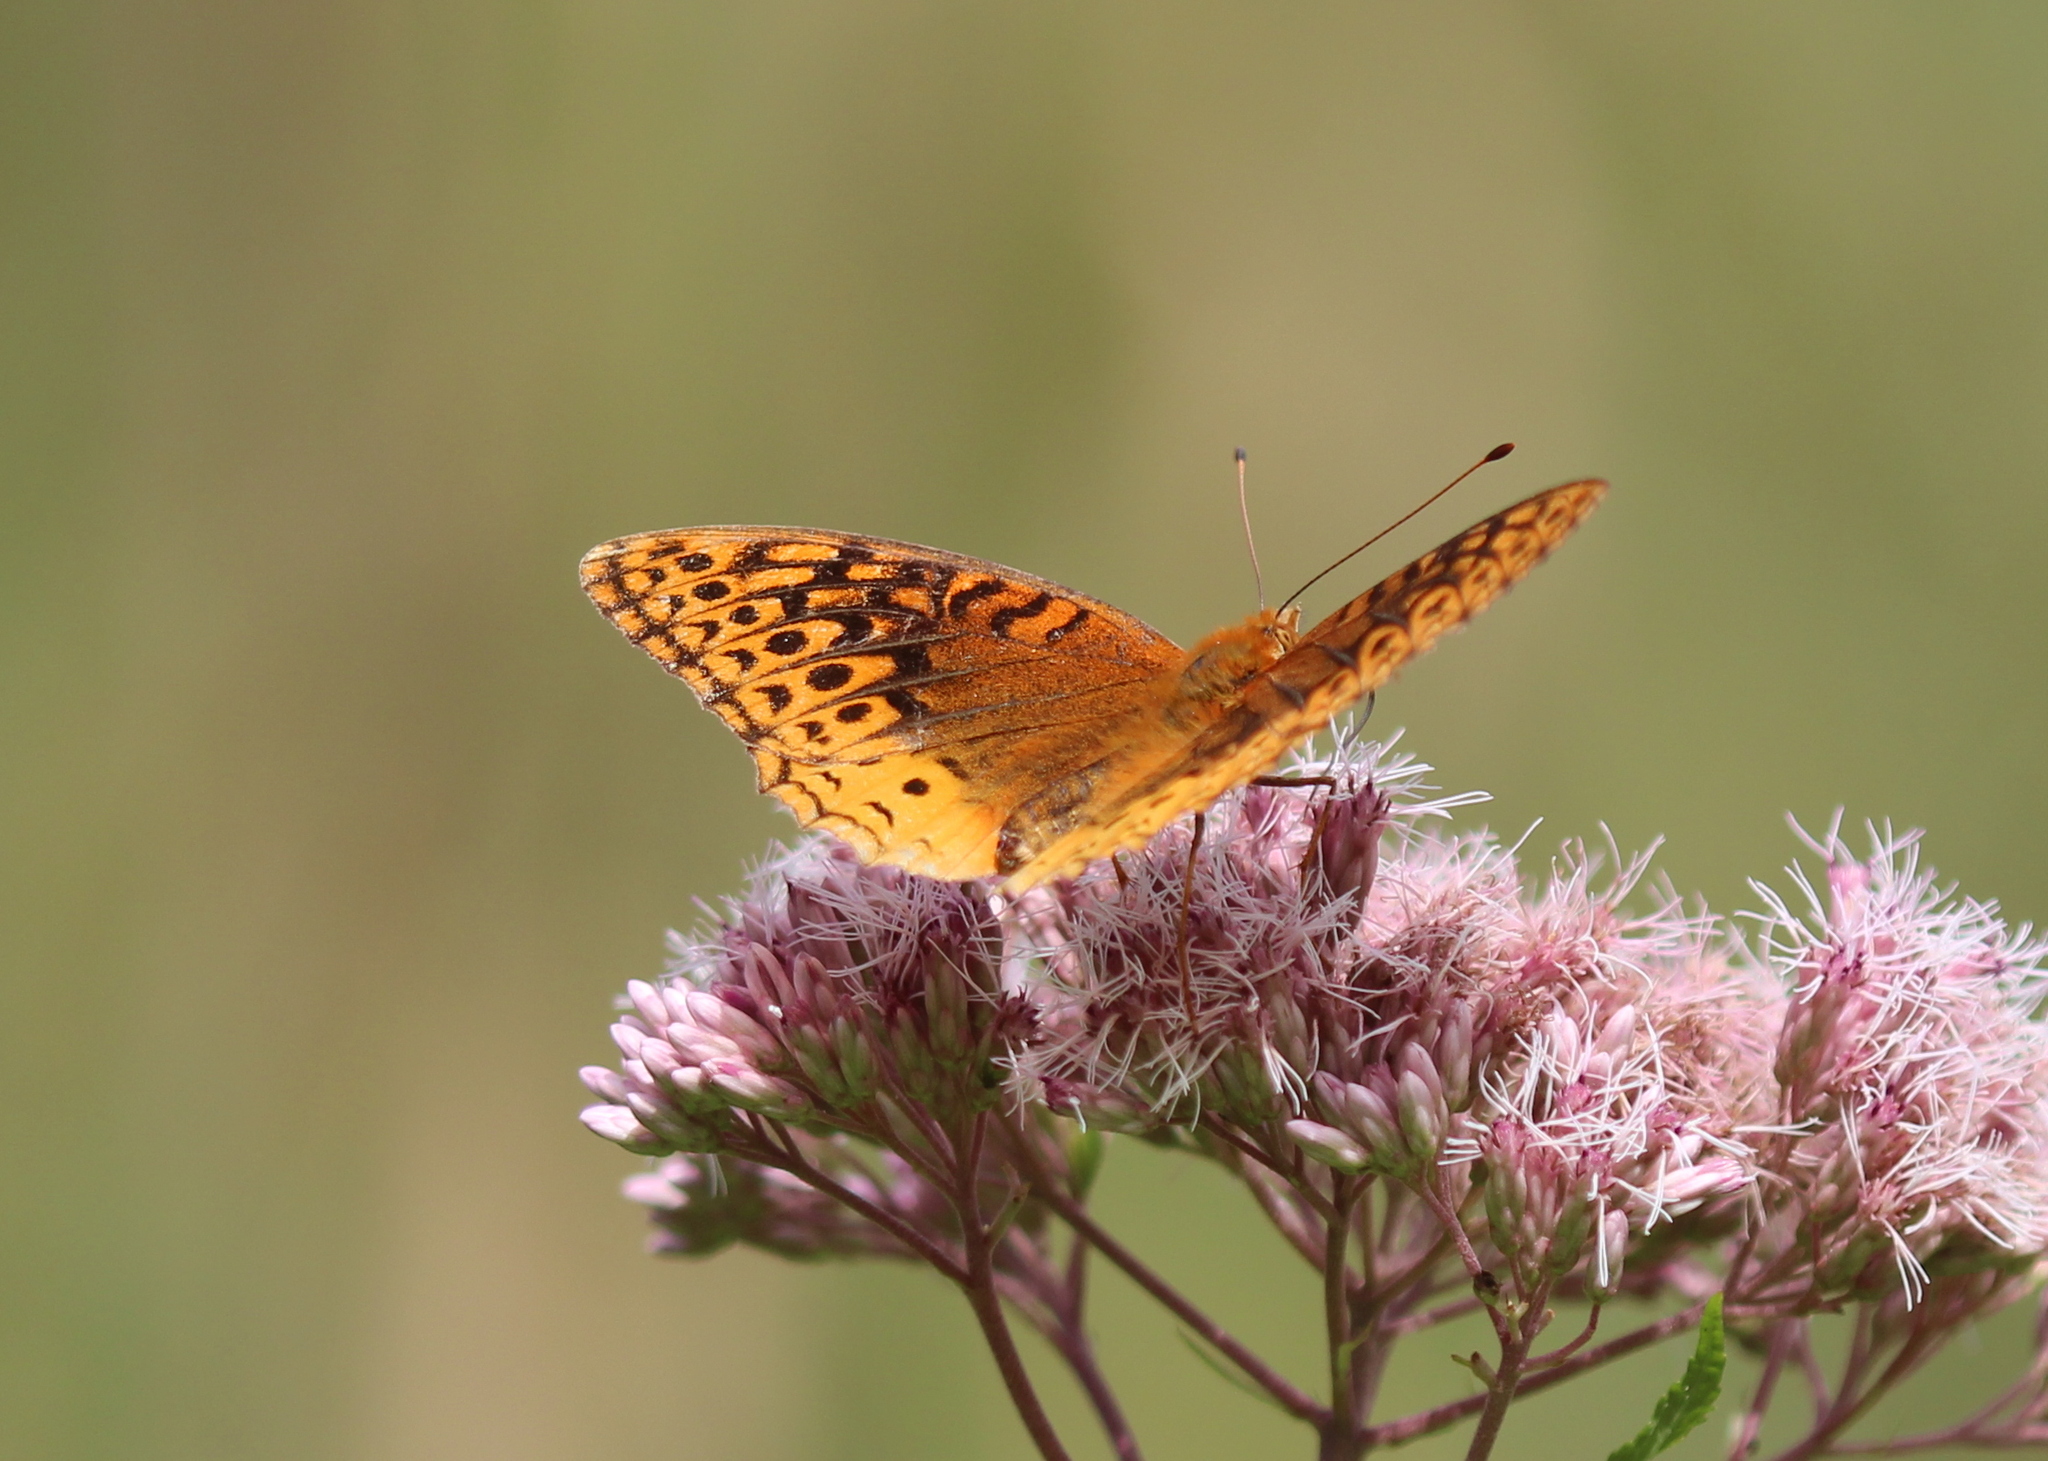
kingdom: Animalia
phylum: Arthropoda
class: Insecta
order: Lepidoptera
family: Nymphalidae
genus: Speyeria
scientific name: Speyeria cybele
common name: Great spangled fritillary
